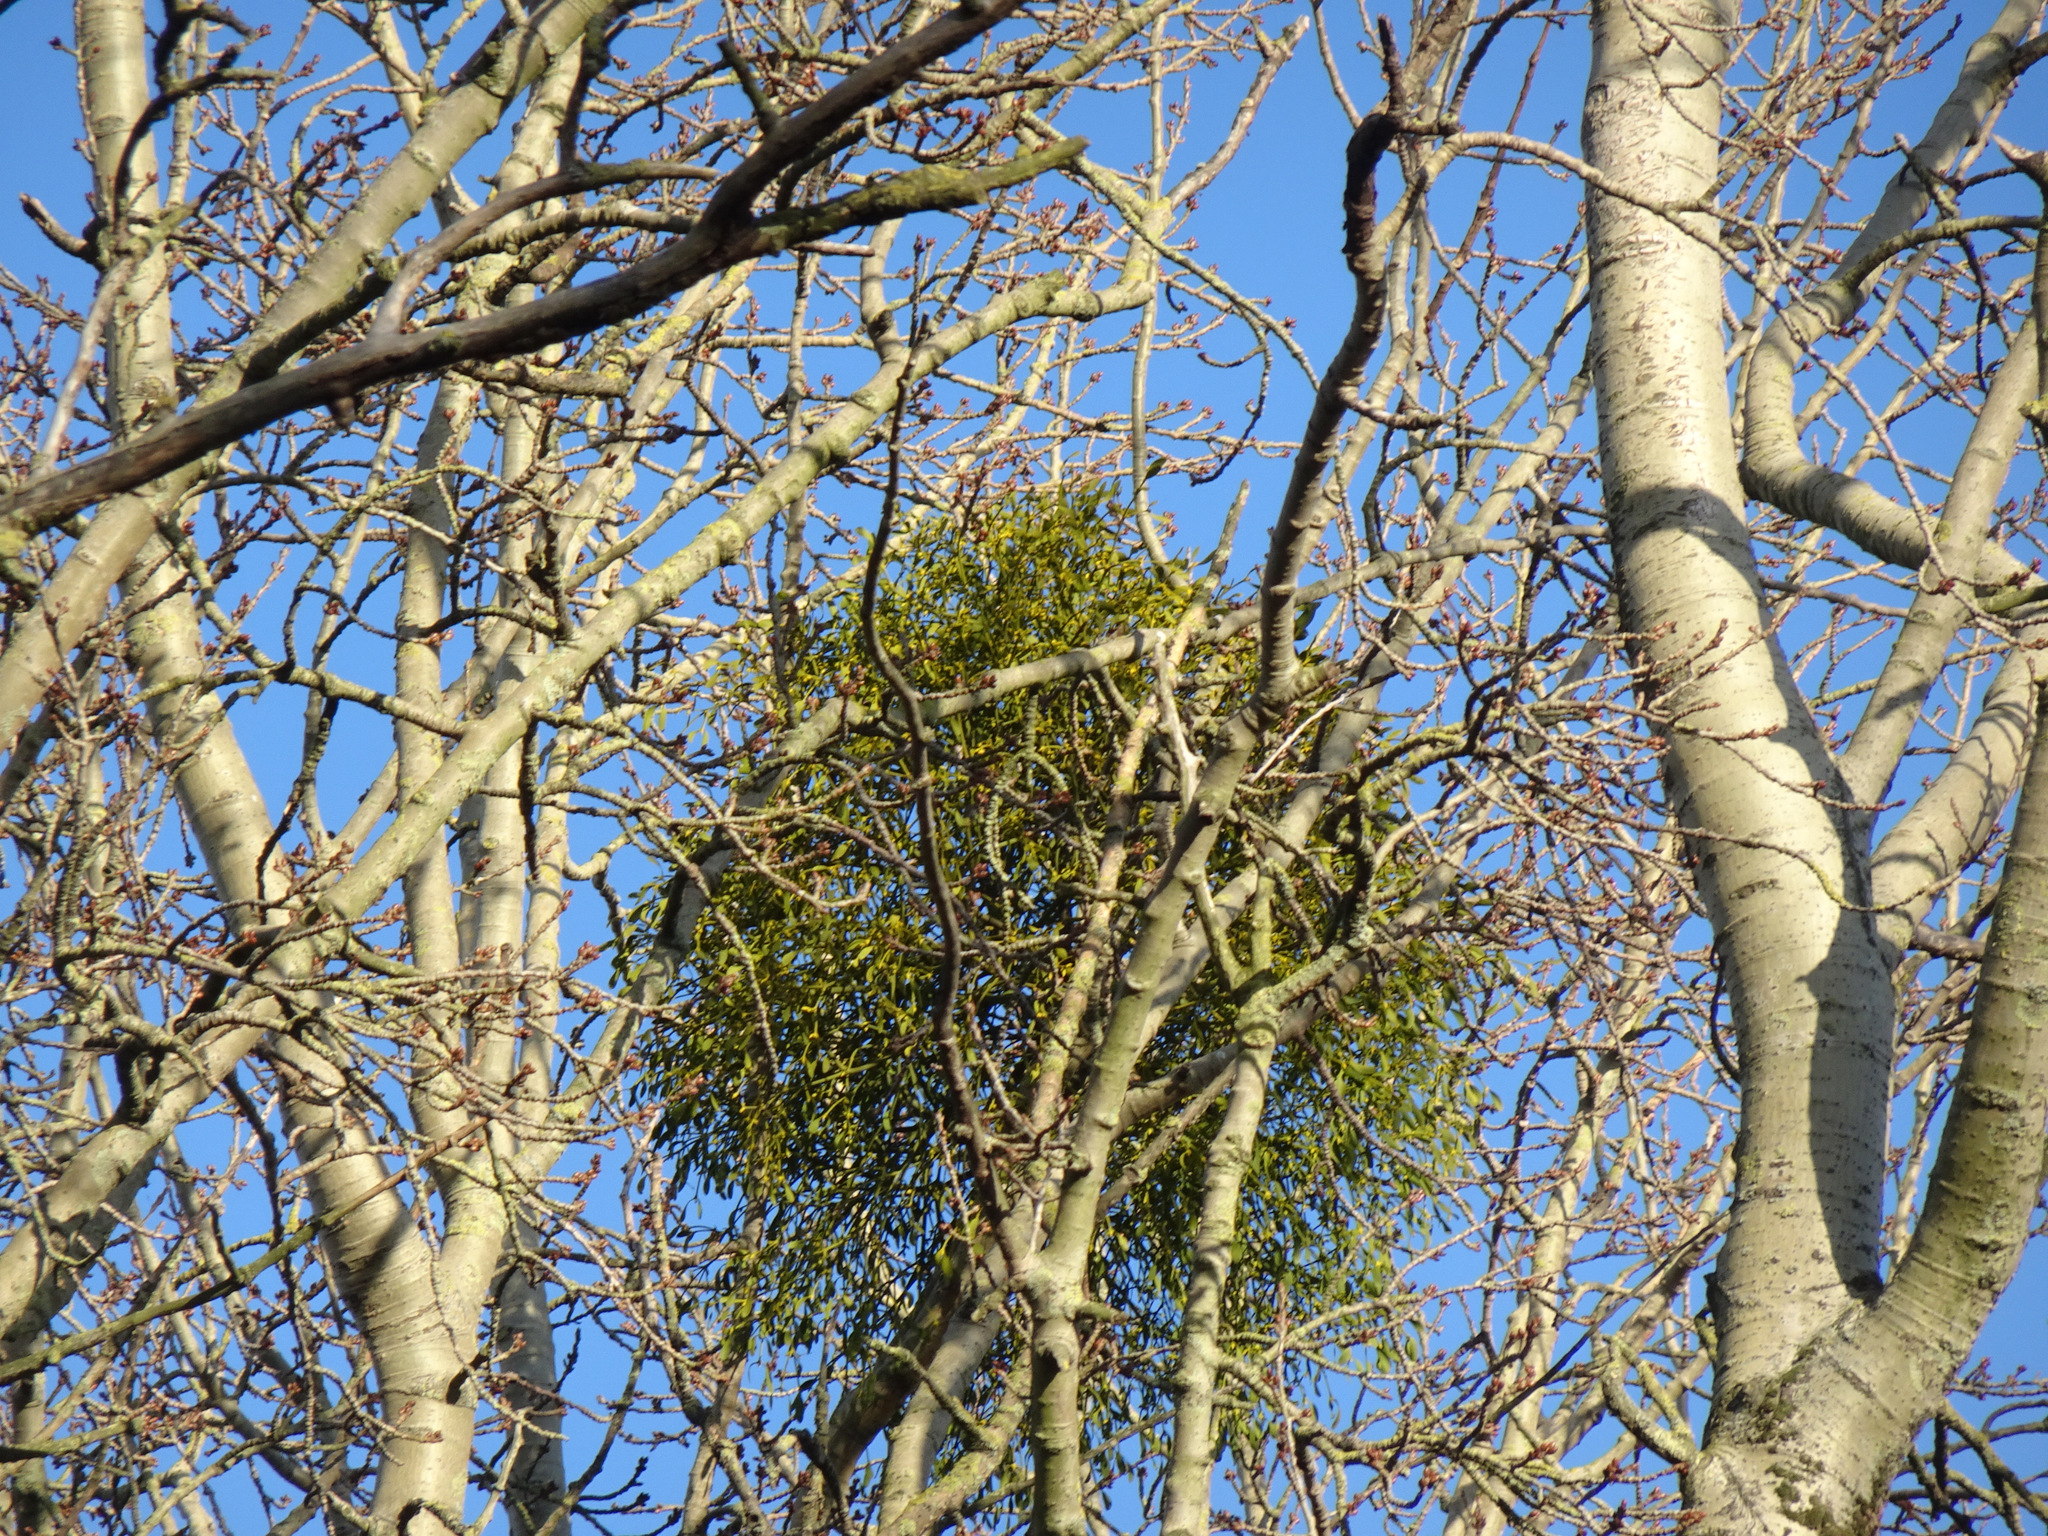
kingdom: Plantae
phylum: Tracheophyta
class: Magnoliopsida
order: Santalales
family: Viscaceae
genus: Viscum
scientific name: Viscum album
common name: Mistletoe
